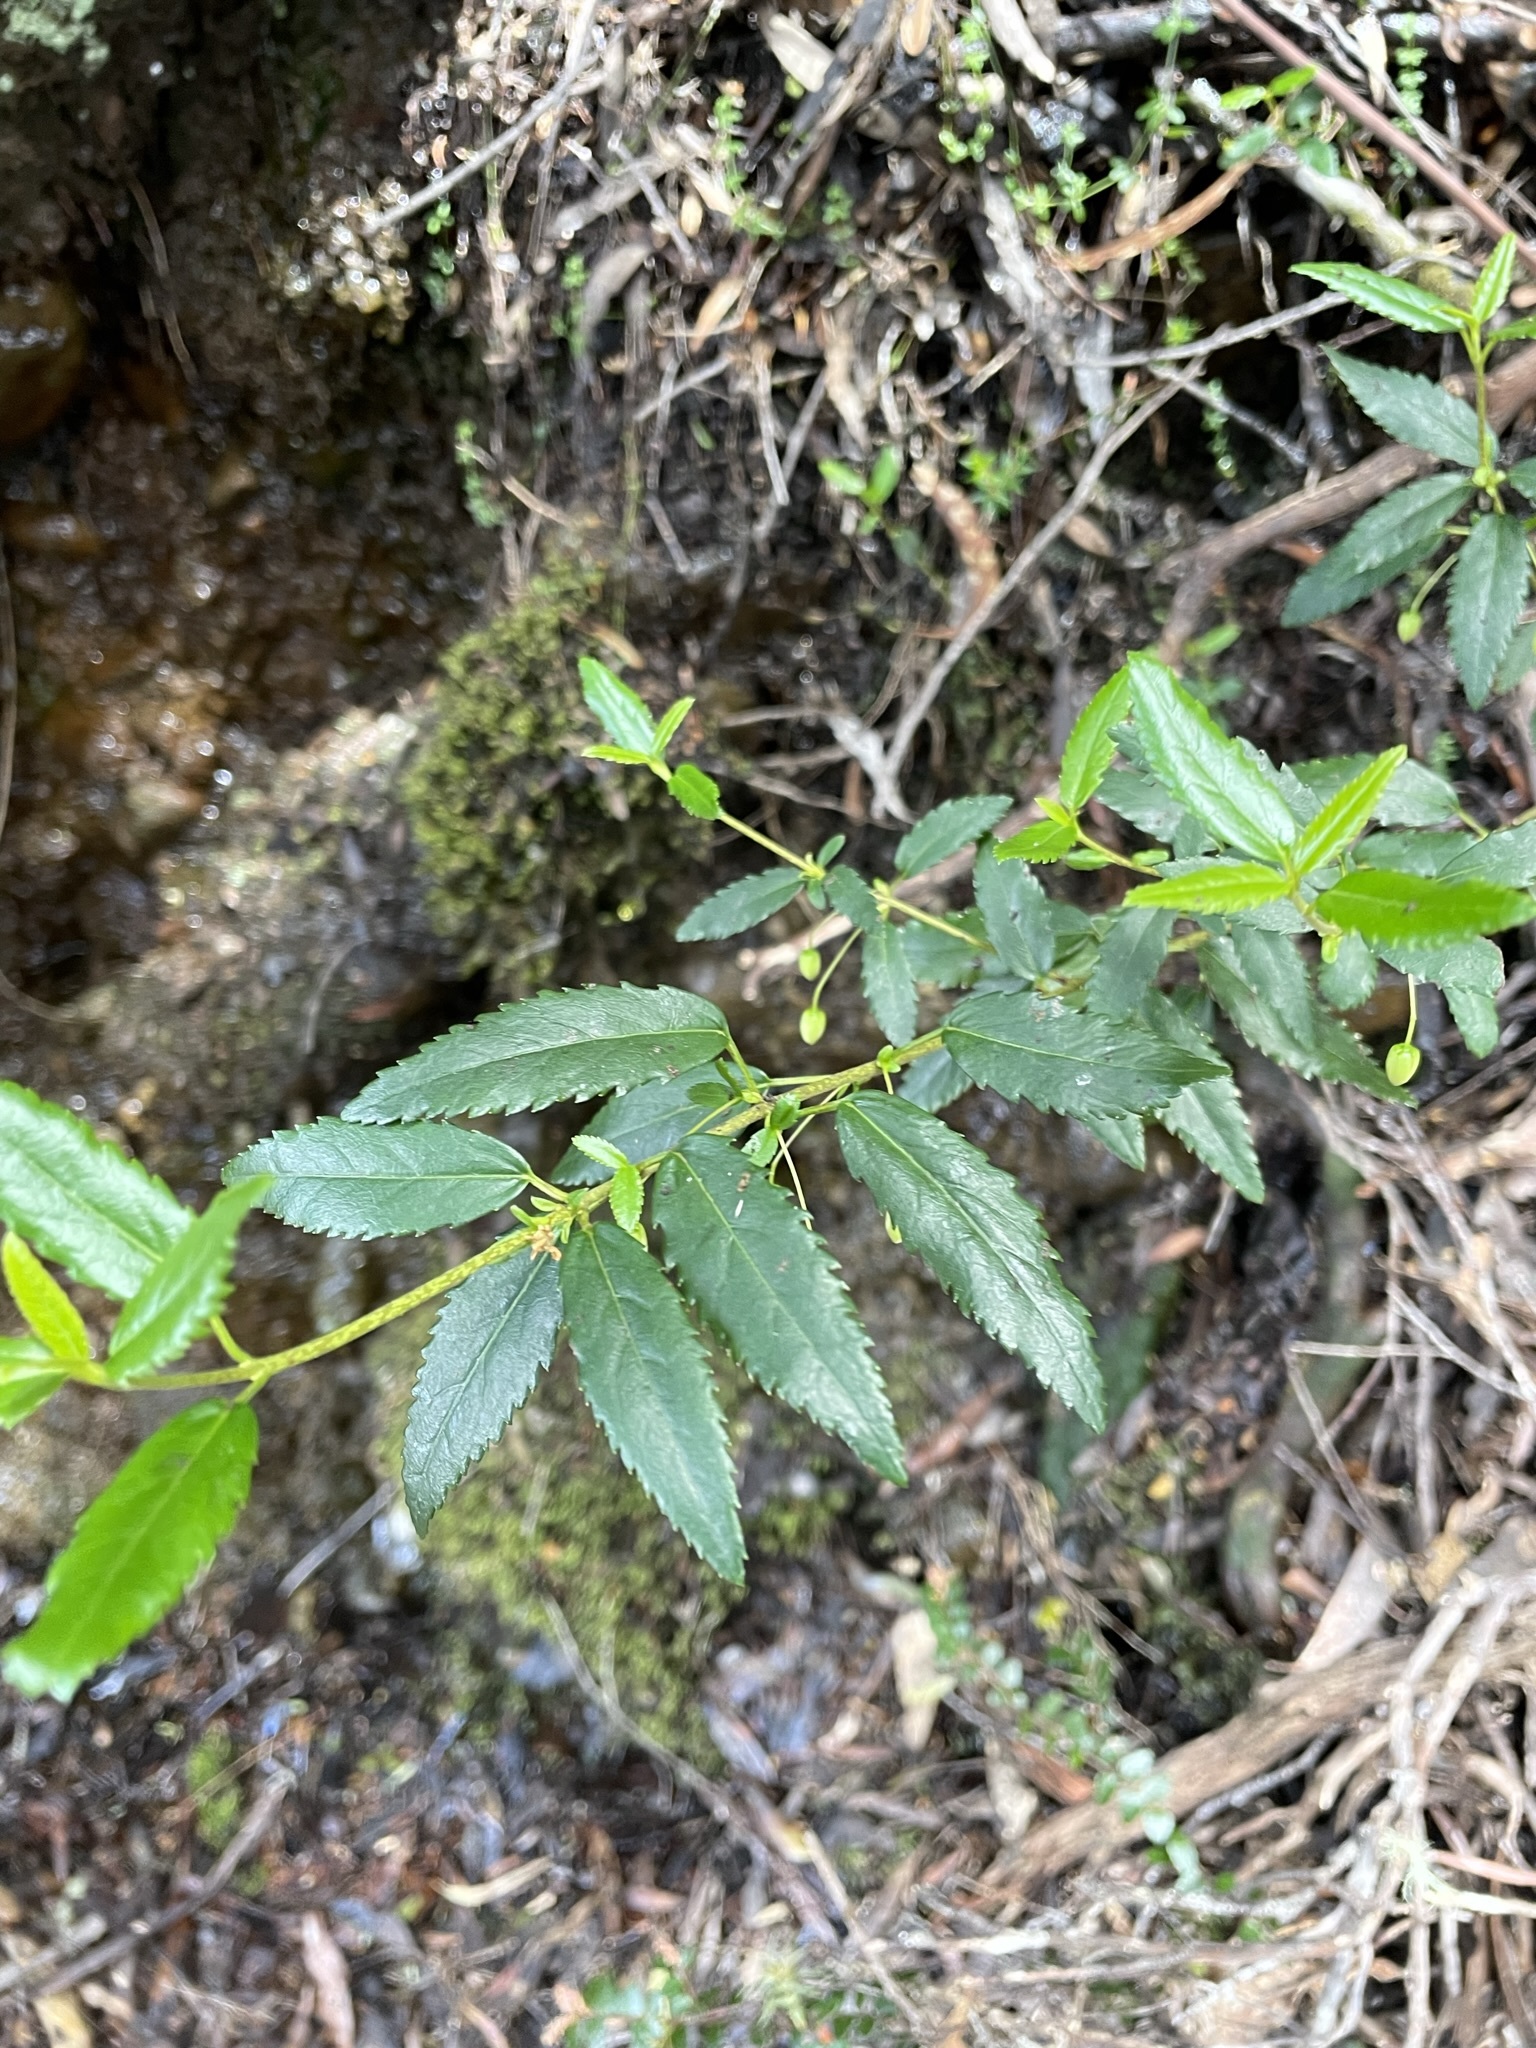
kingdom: Plantae
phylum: Tracheophyta
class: Magnoliopsida
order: Oxalidales
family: Elaeocarpaceae
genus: Aristotelia
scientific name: Aristotelia peduncularis
